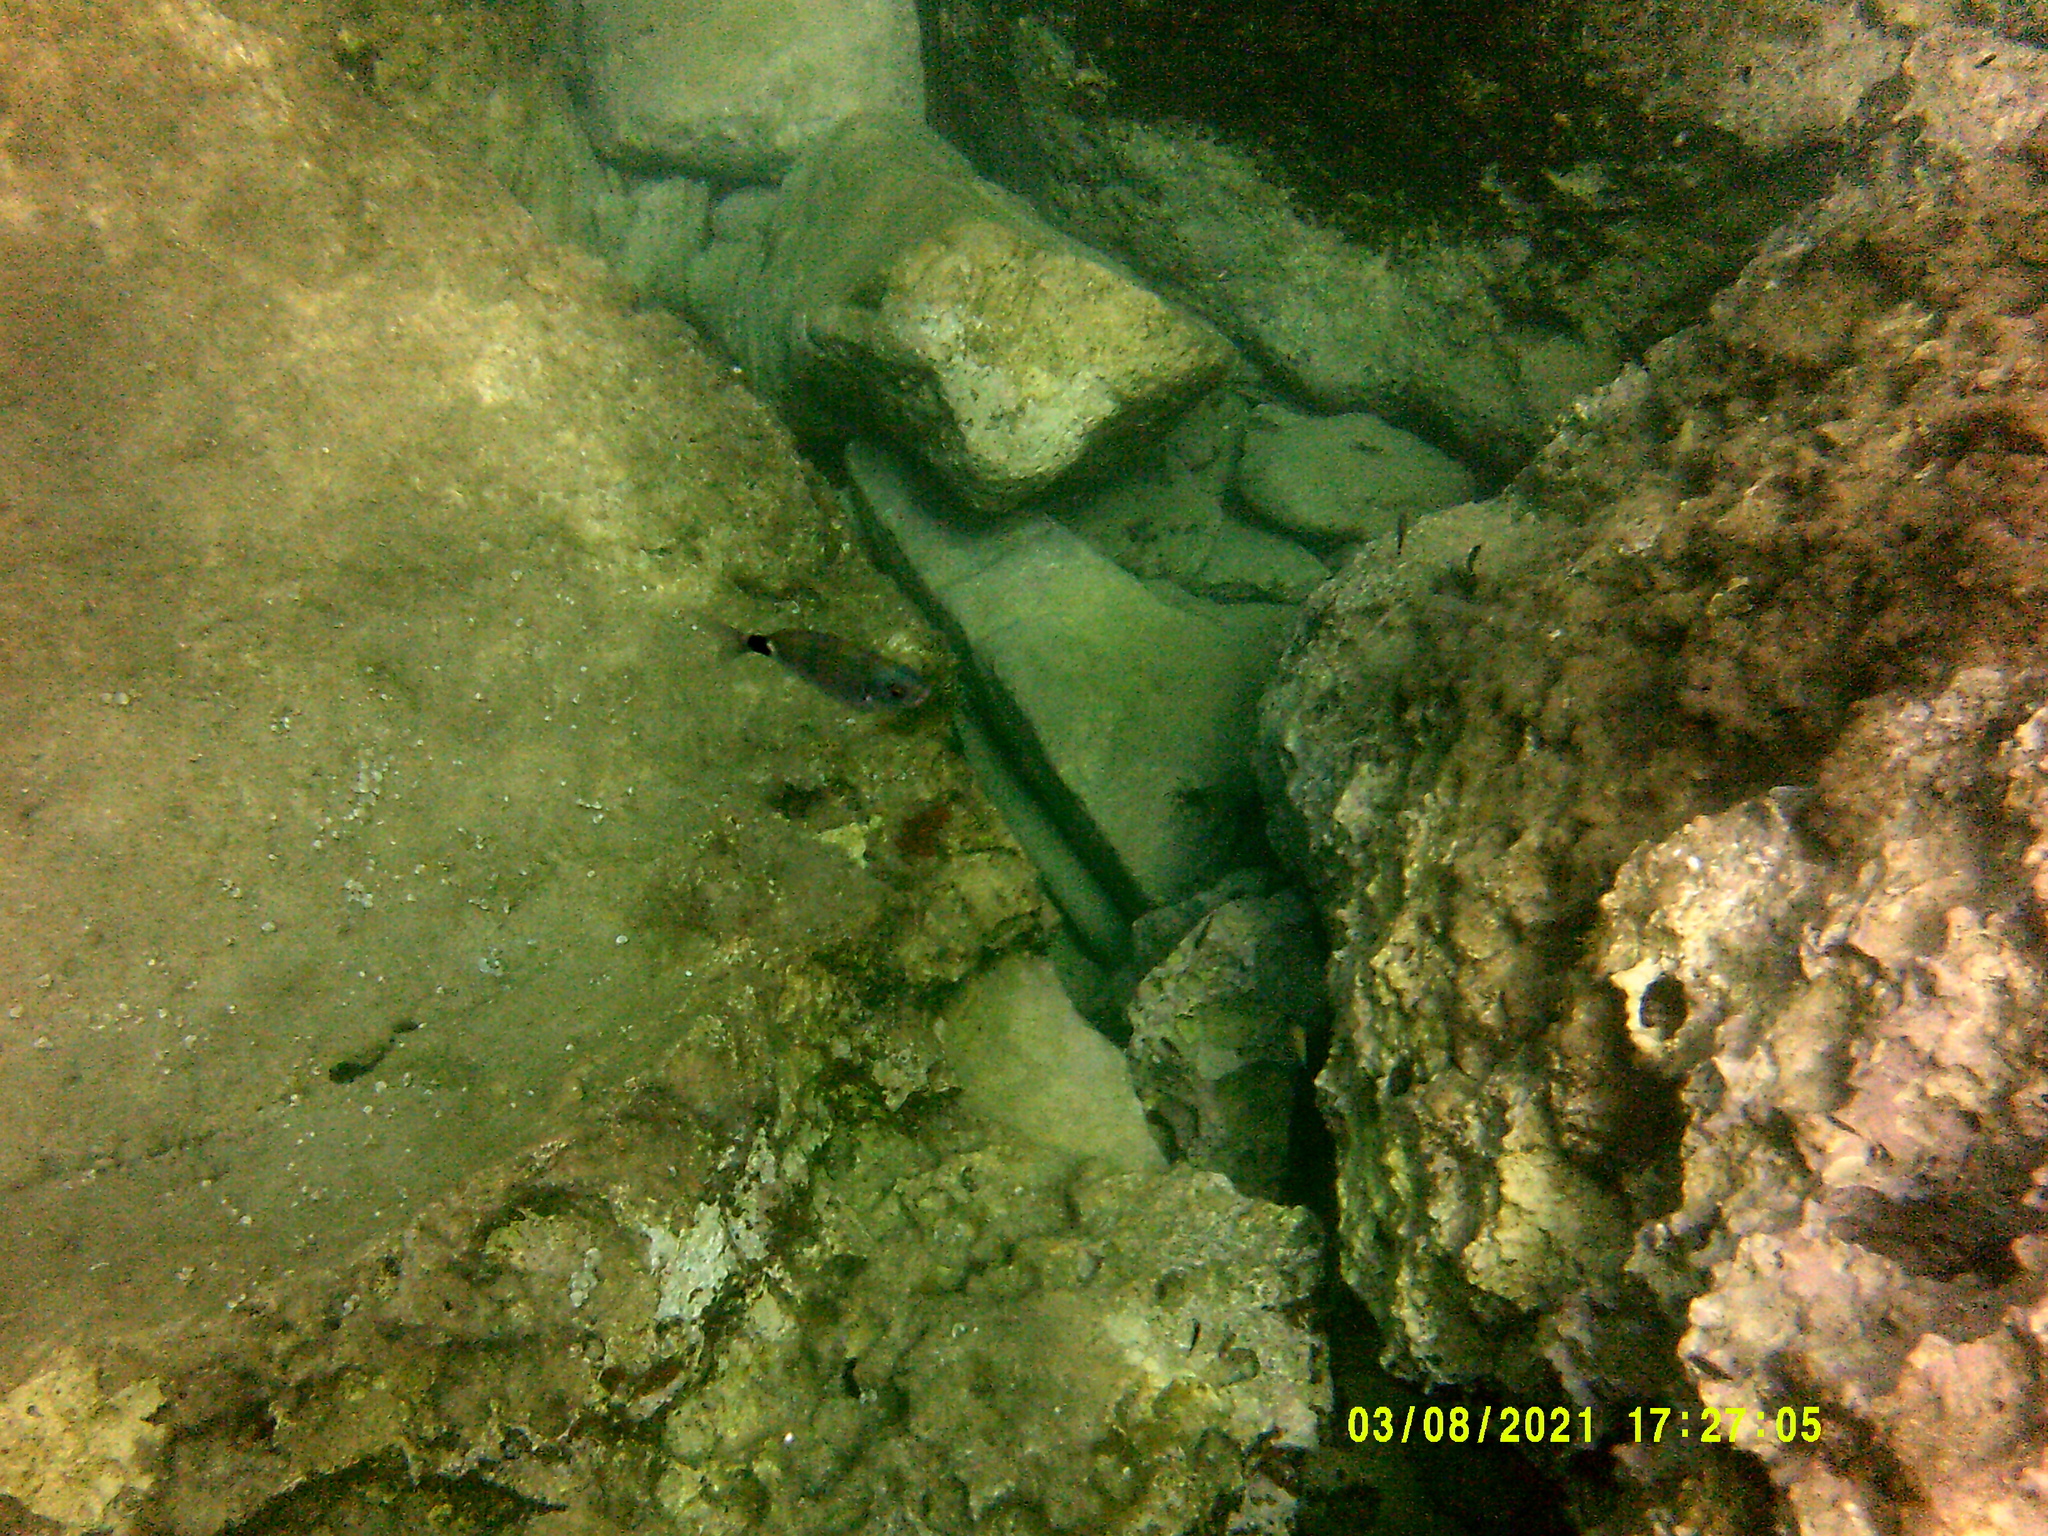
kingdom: Animalia
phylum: Chordata
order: Perciformes
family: Sparidae
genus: Oblada
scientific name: Oblada melanura
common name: Saddled seabream
